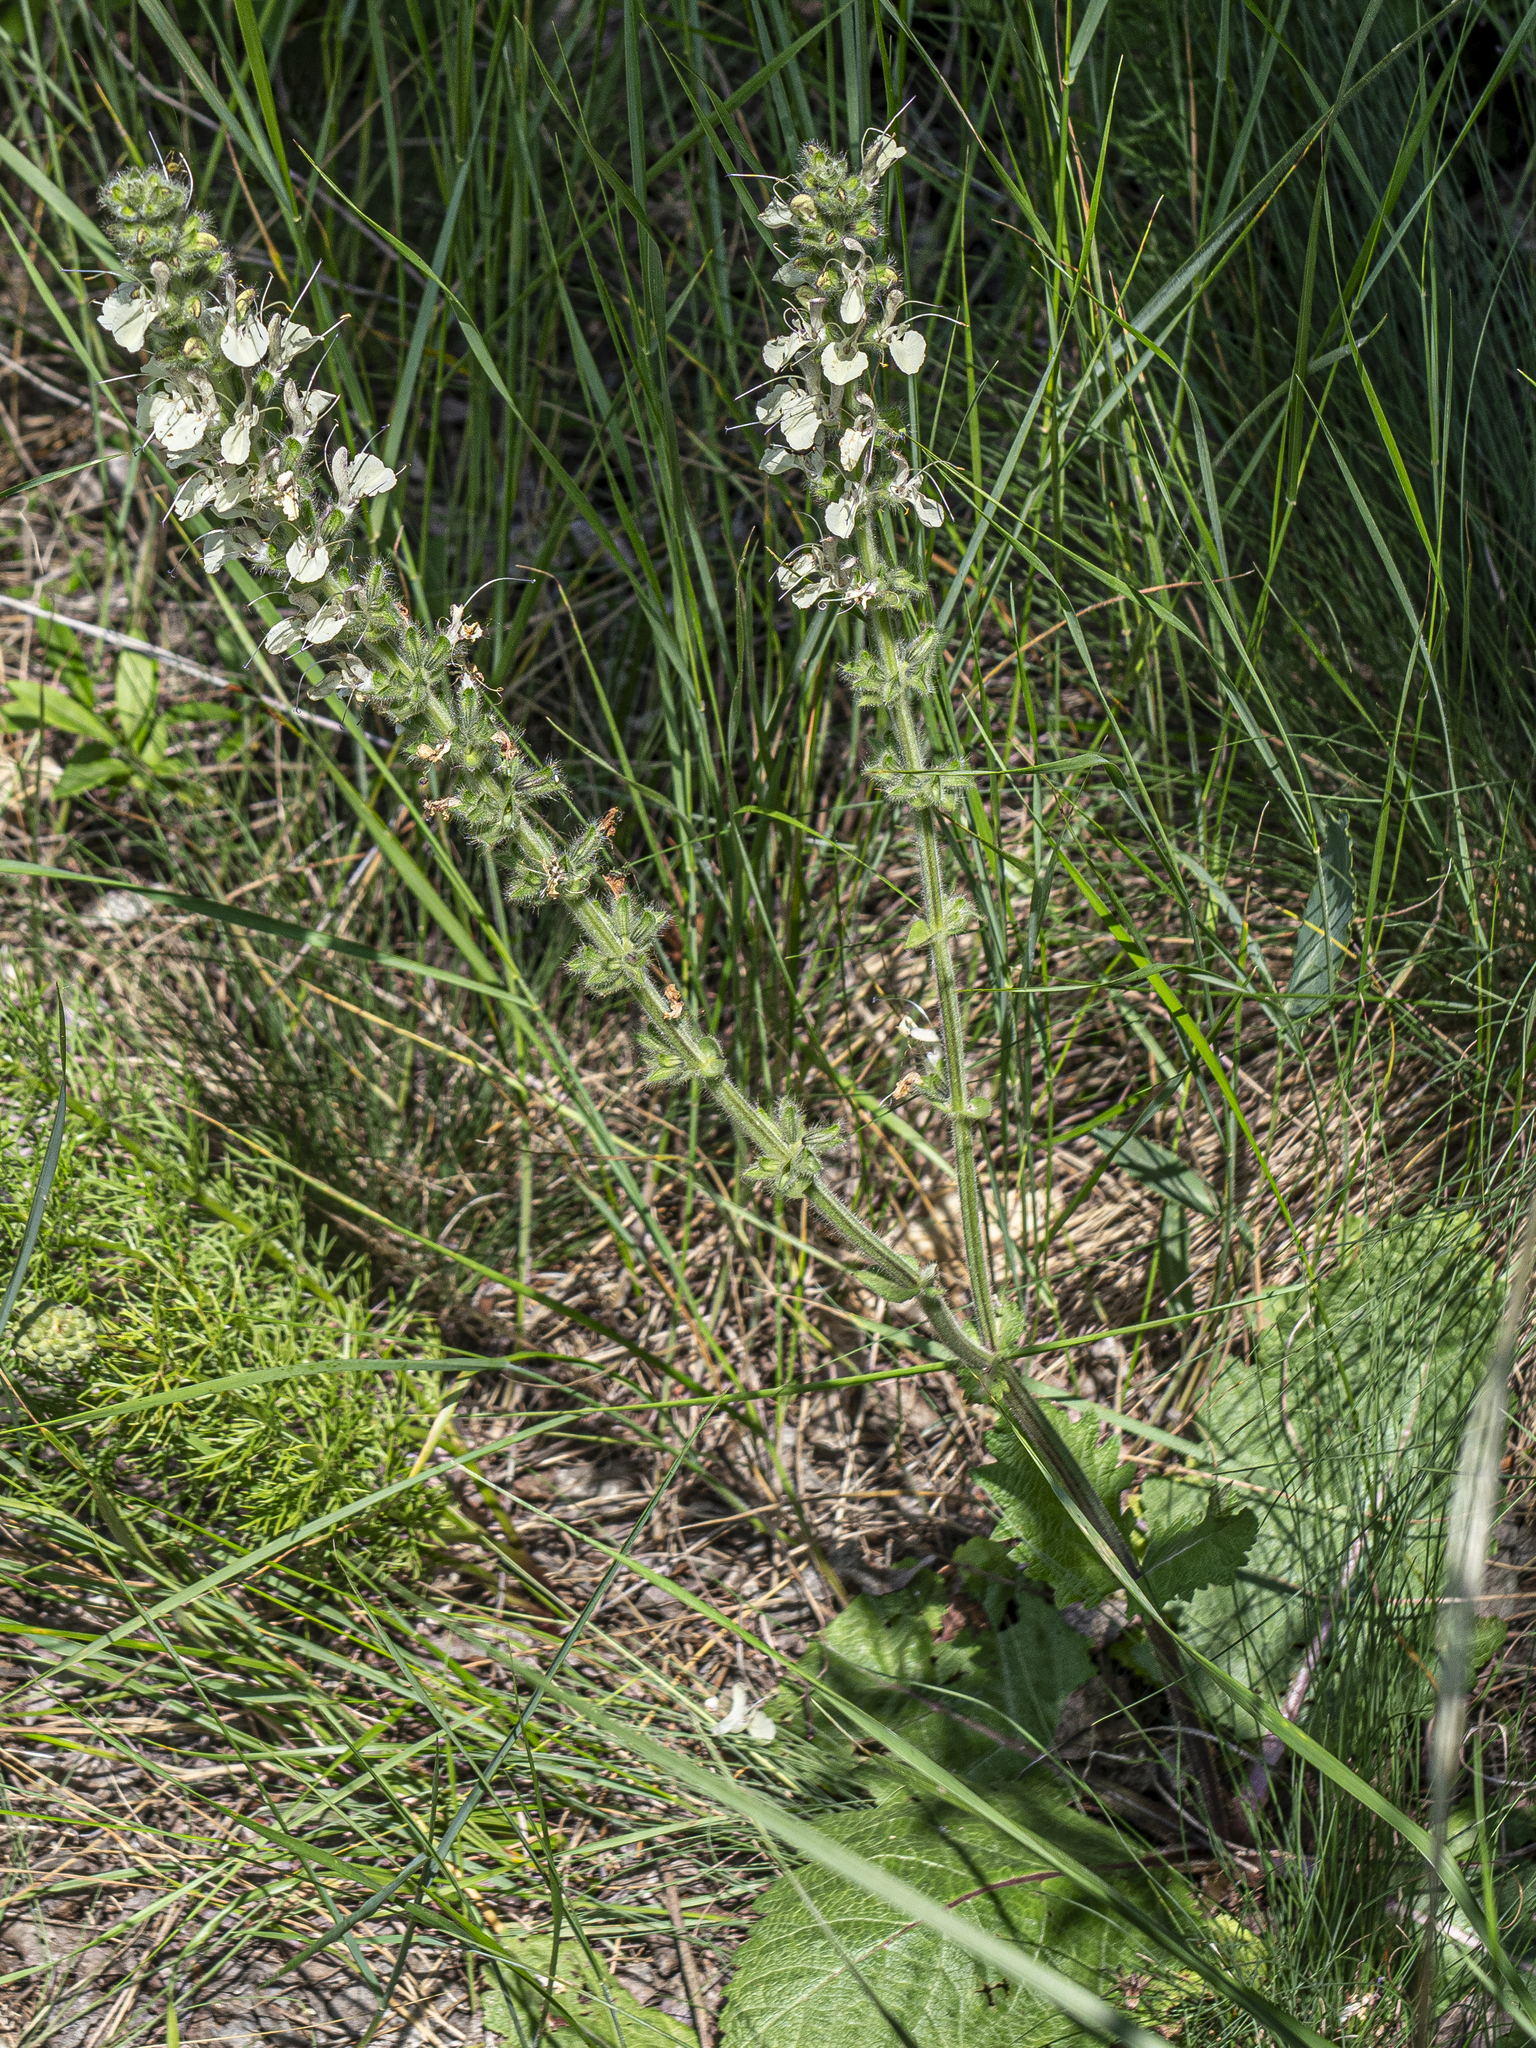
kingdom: Plantae
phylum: Tracheophyta
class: Magnoliopsida
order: Lamiales
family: Lamiaceae
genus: Salvia
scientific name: Salvia austriaca
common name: Austrian sage
